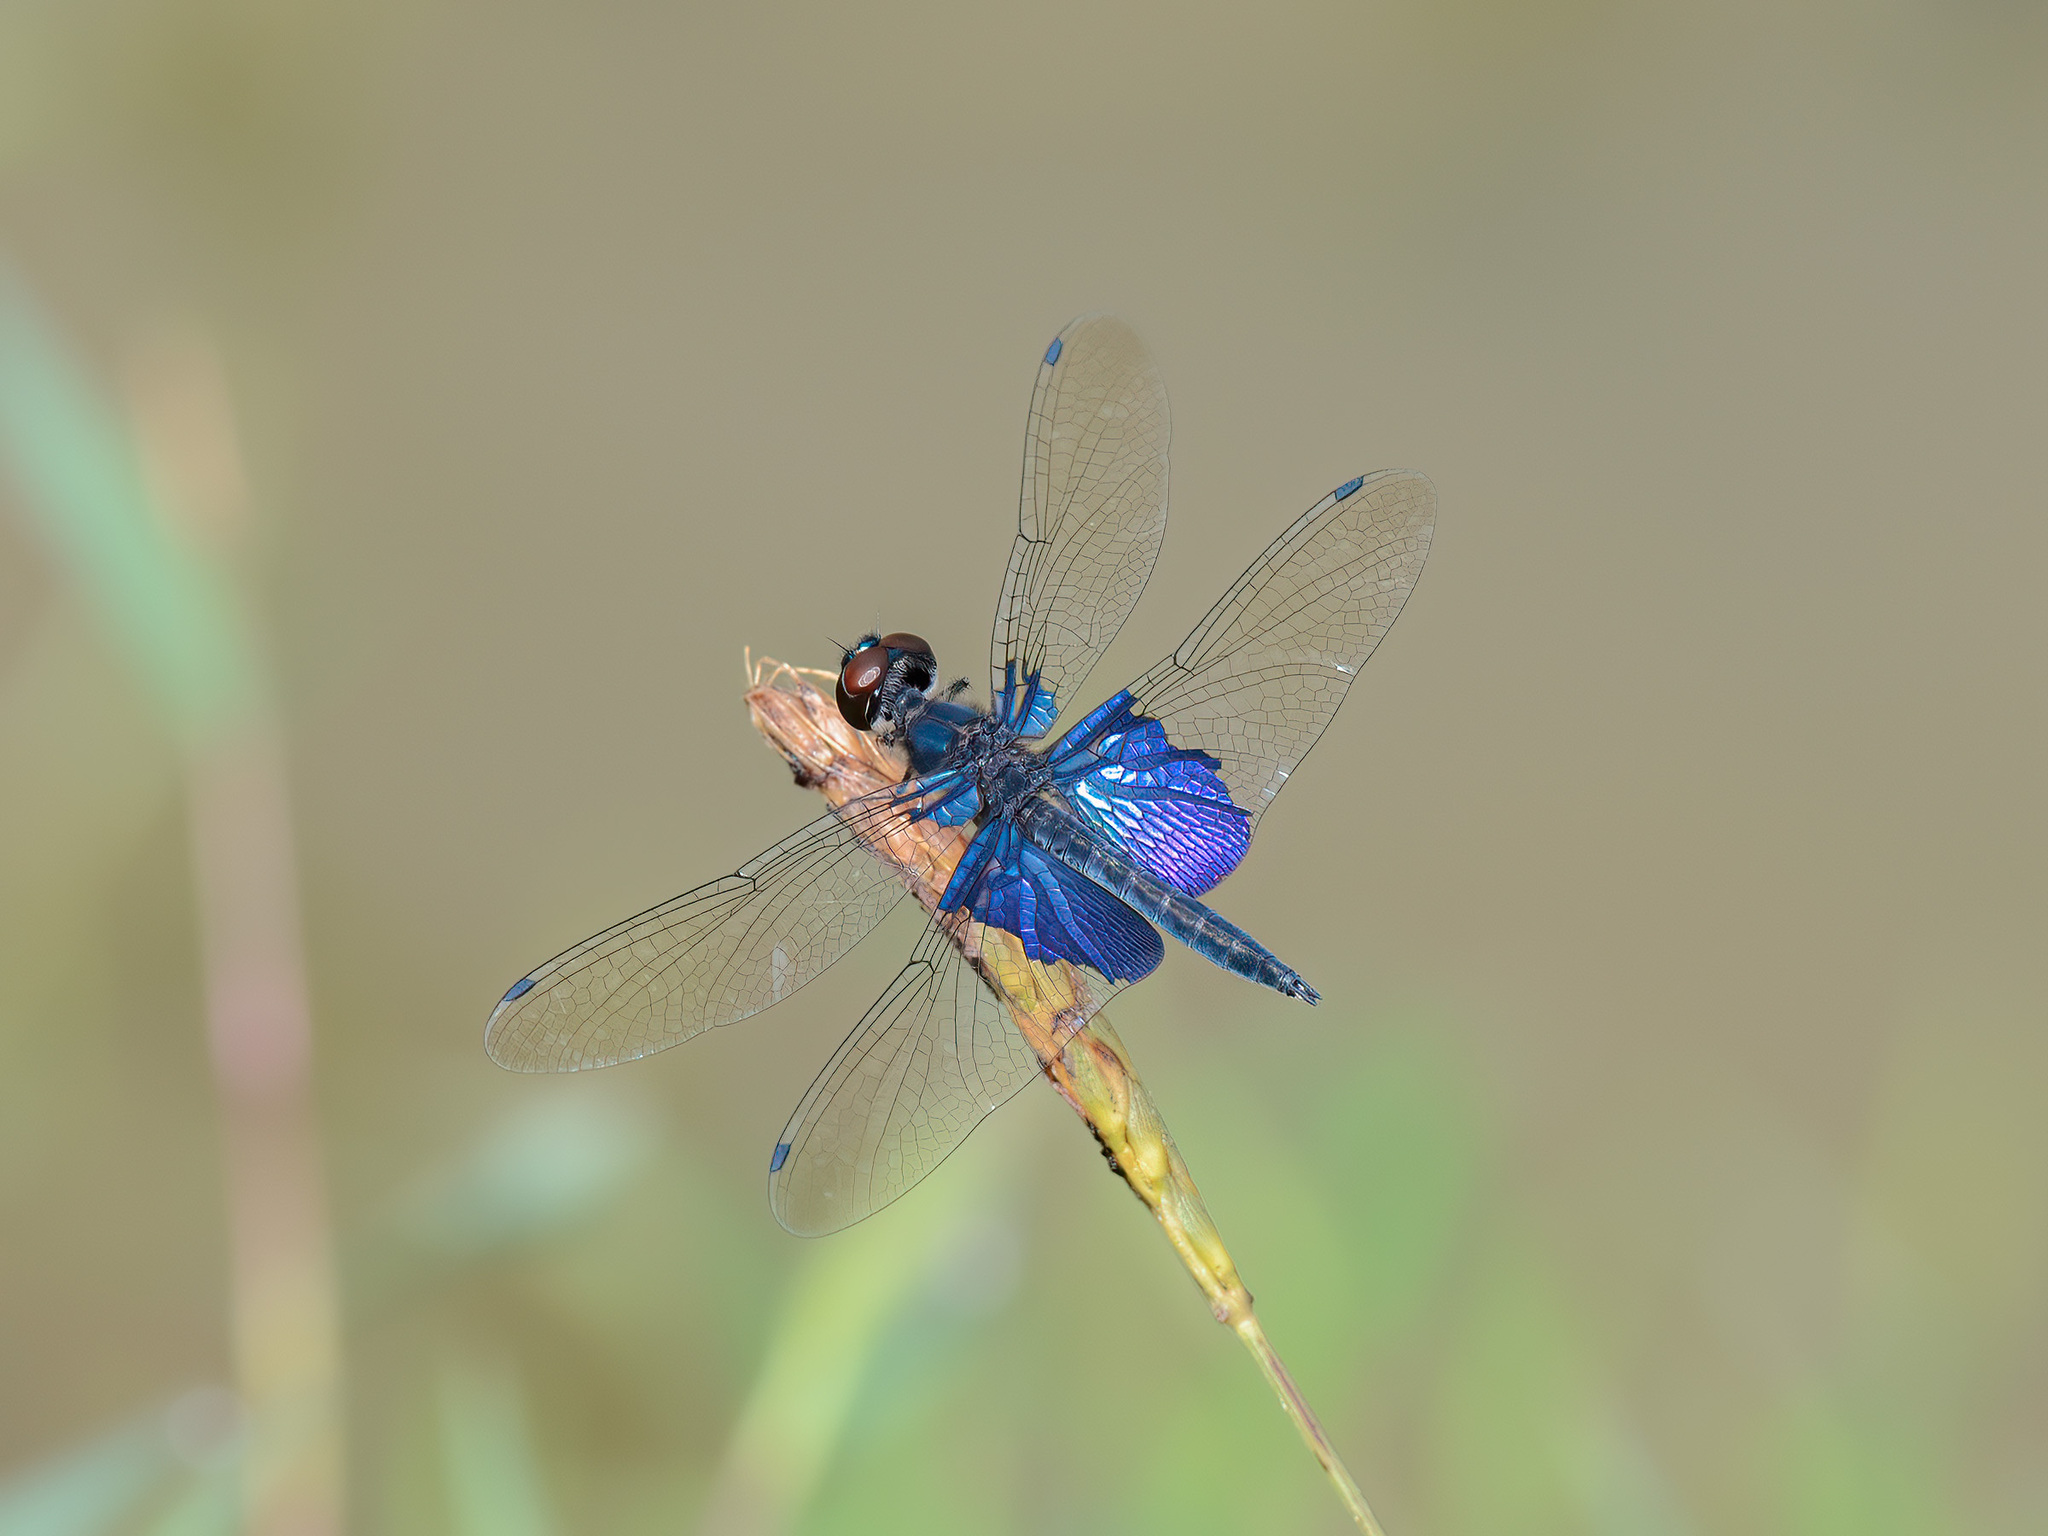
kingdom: Animalia
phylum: Arthropoda
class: Insecta
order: Odonata
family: Libellulidae
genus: Rhyothemis
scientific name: Rhyothemis triangularis
